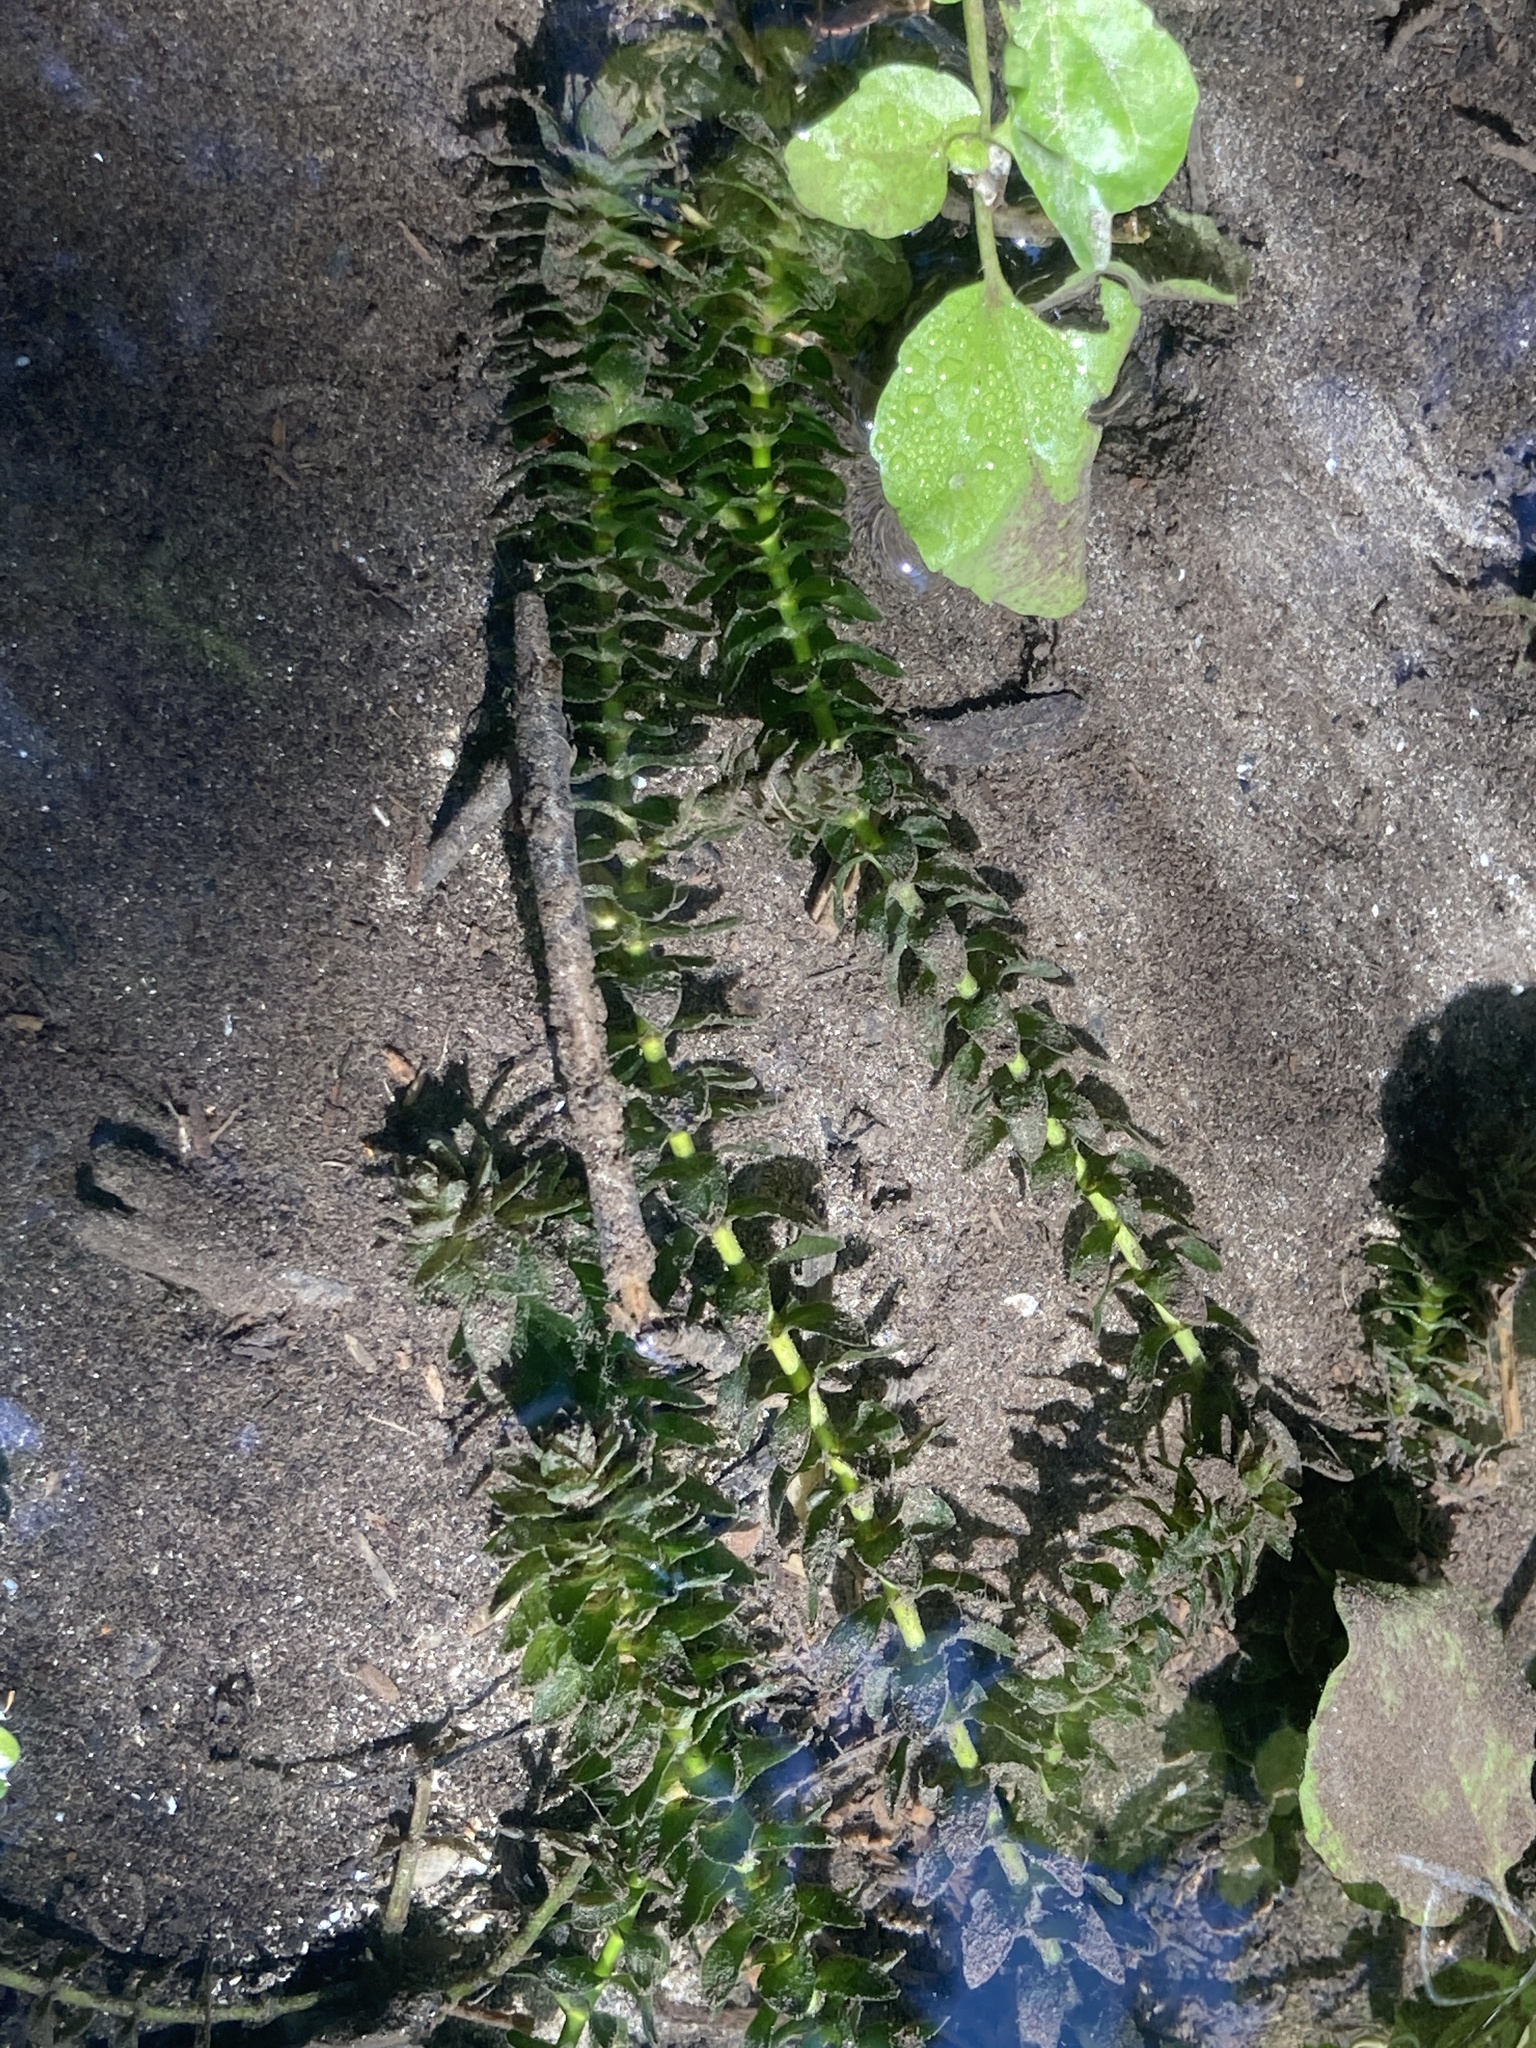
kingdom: Plantae
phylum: Tracheophyta
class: Liliopsida
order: Alismatales
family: Hydrocharitaceae
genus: Elodea
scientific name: Elodea canadensis
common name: Canadian waterweed
